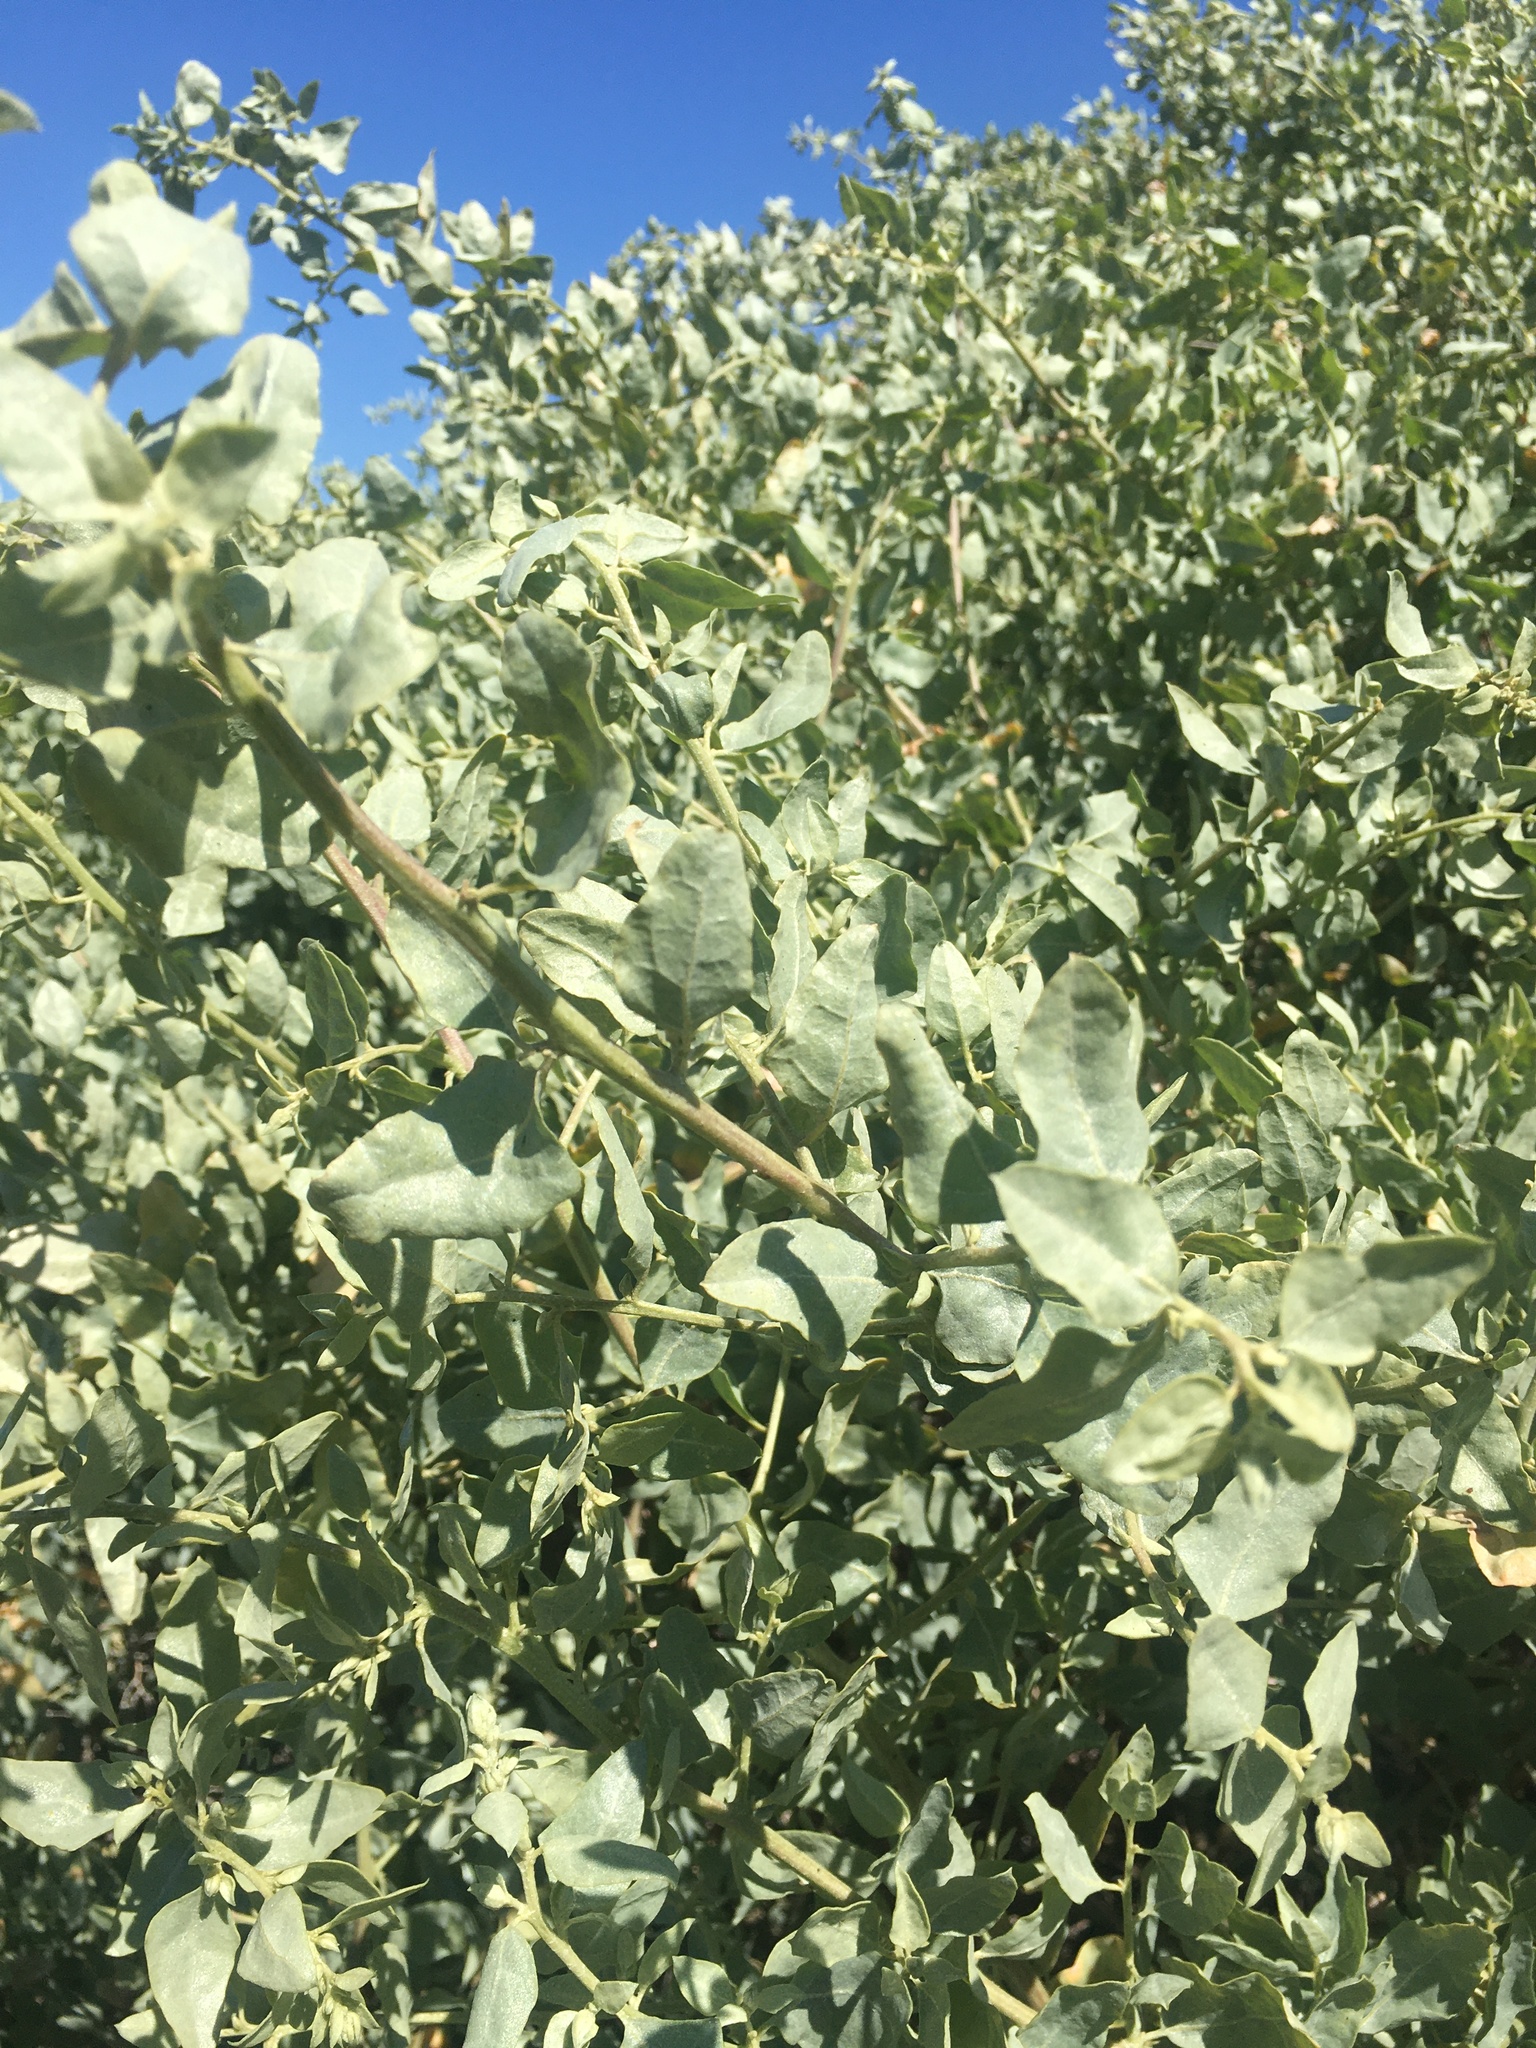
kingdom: Plantae
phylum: Tracheophyta
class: Magnoliopsida
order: Caryophyllales
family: Amaranthaceae
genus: Atriplex
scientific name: Atriplex lentiformis
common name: Big saltbush
